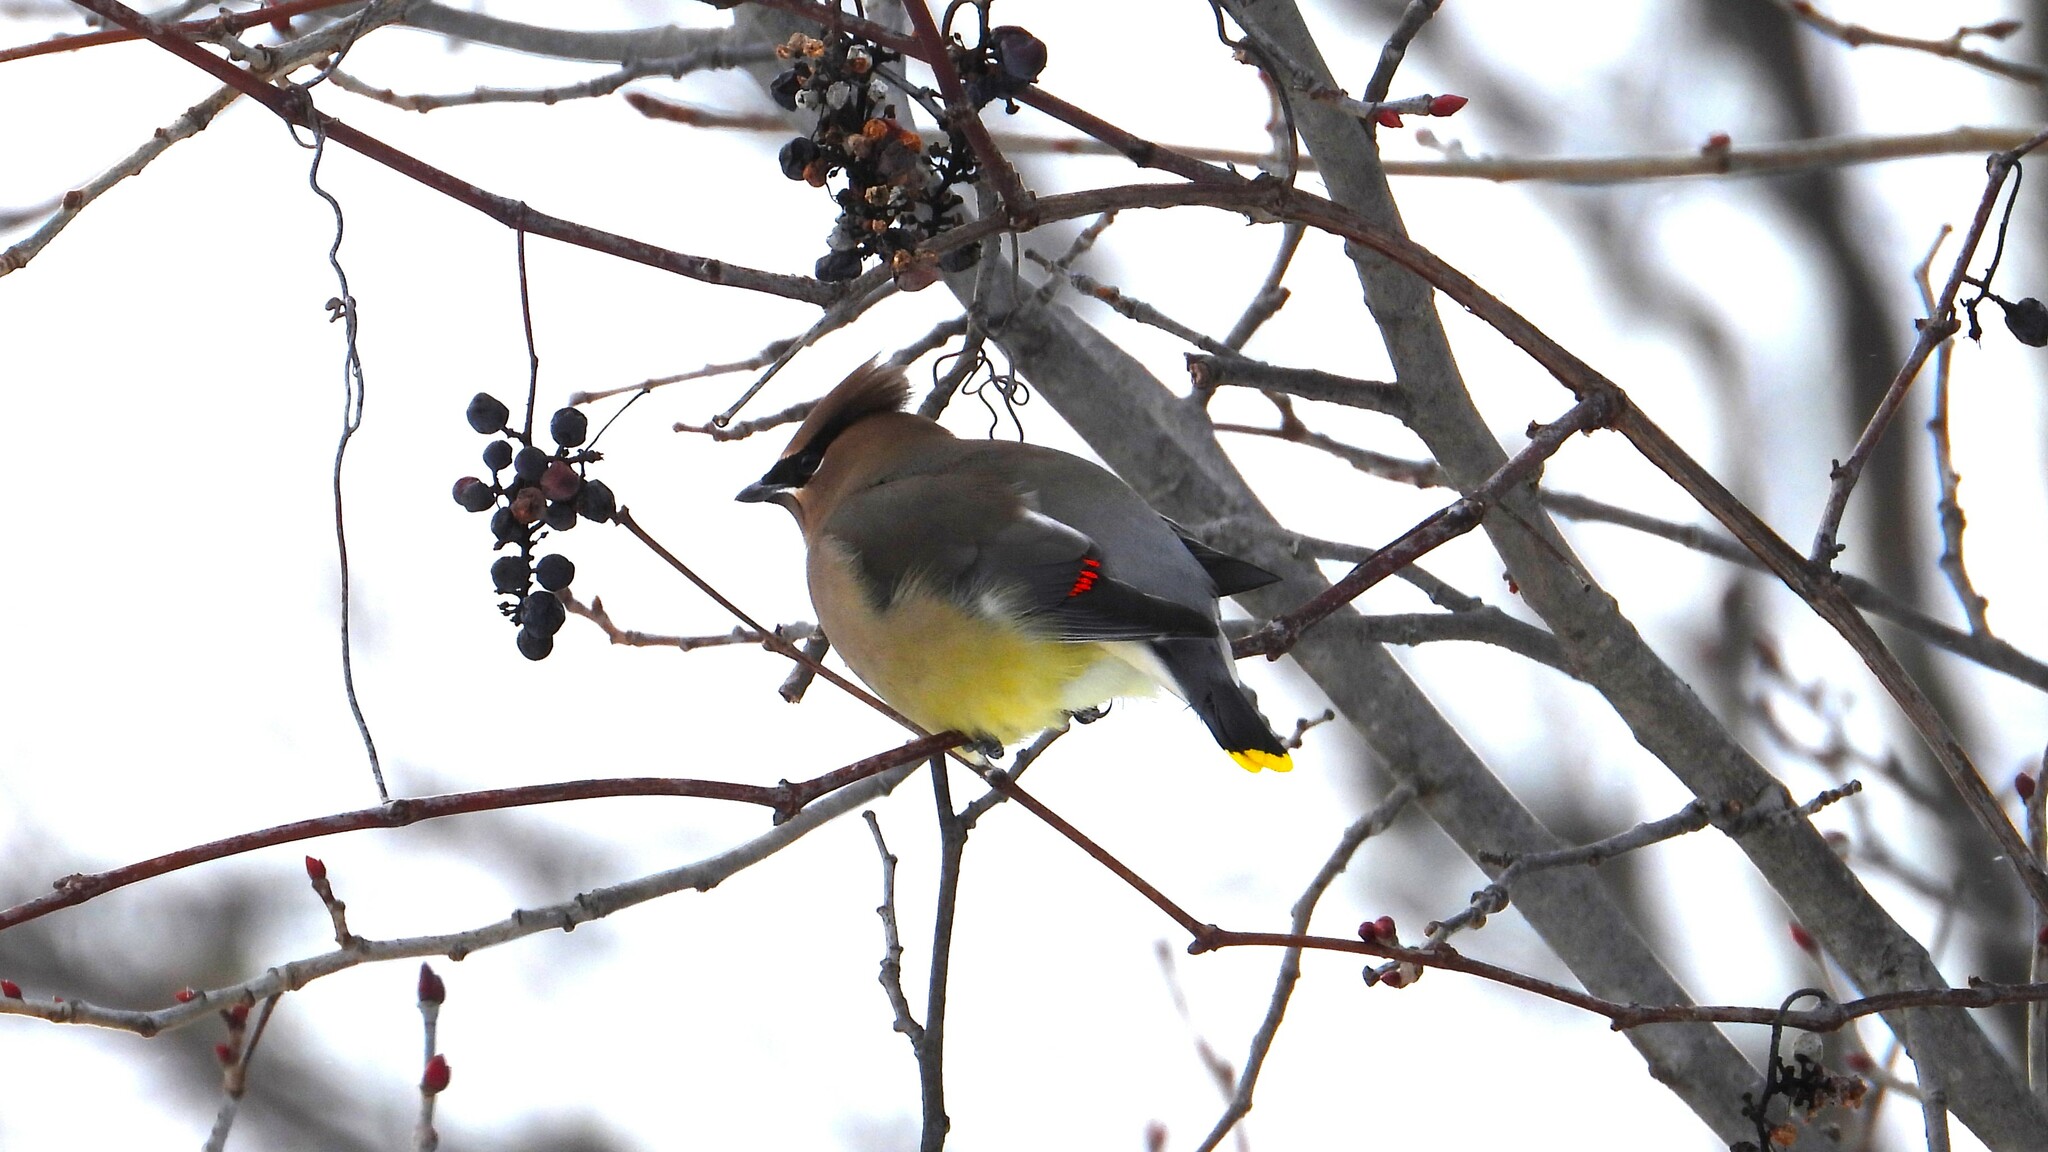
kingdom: Animalia
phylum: Chordata
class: Aves
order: Passeriformes
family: Bombycillidae
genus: Bombycilla
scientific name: Bombycilla cedrorum
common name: Cedar waxwing
